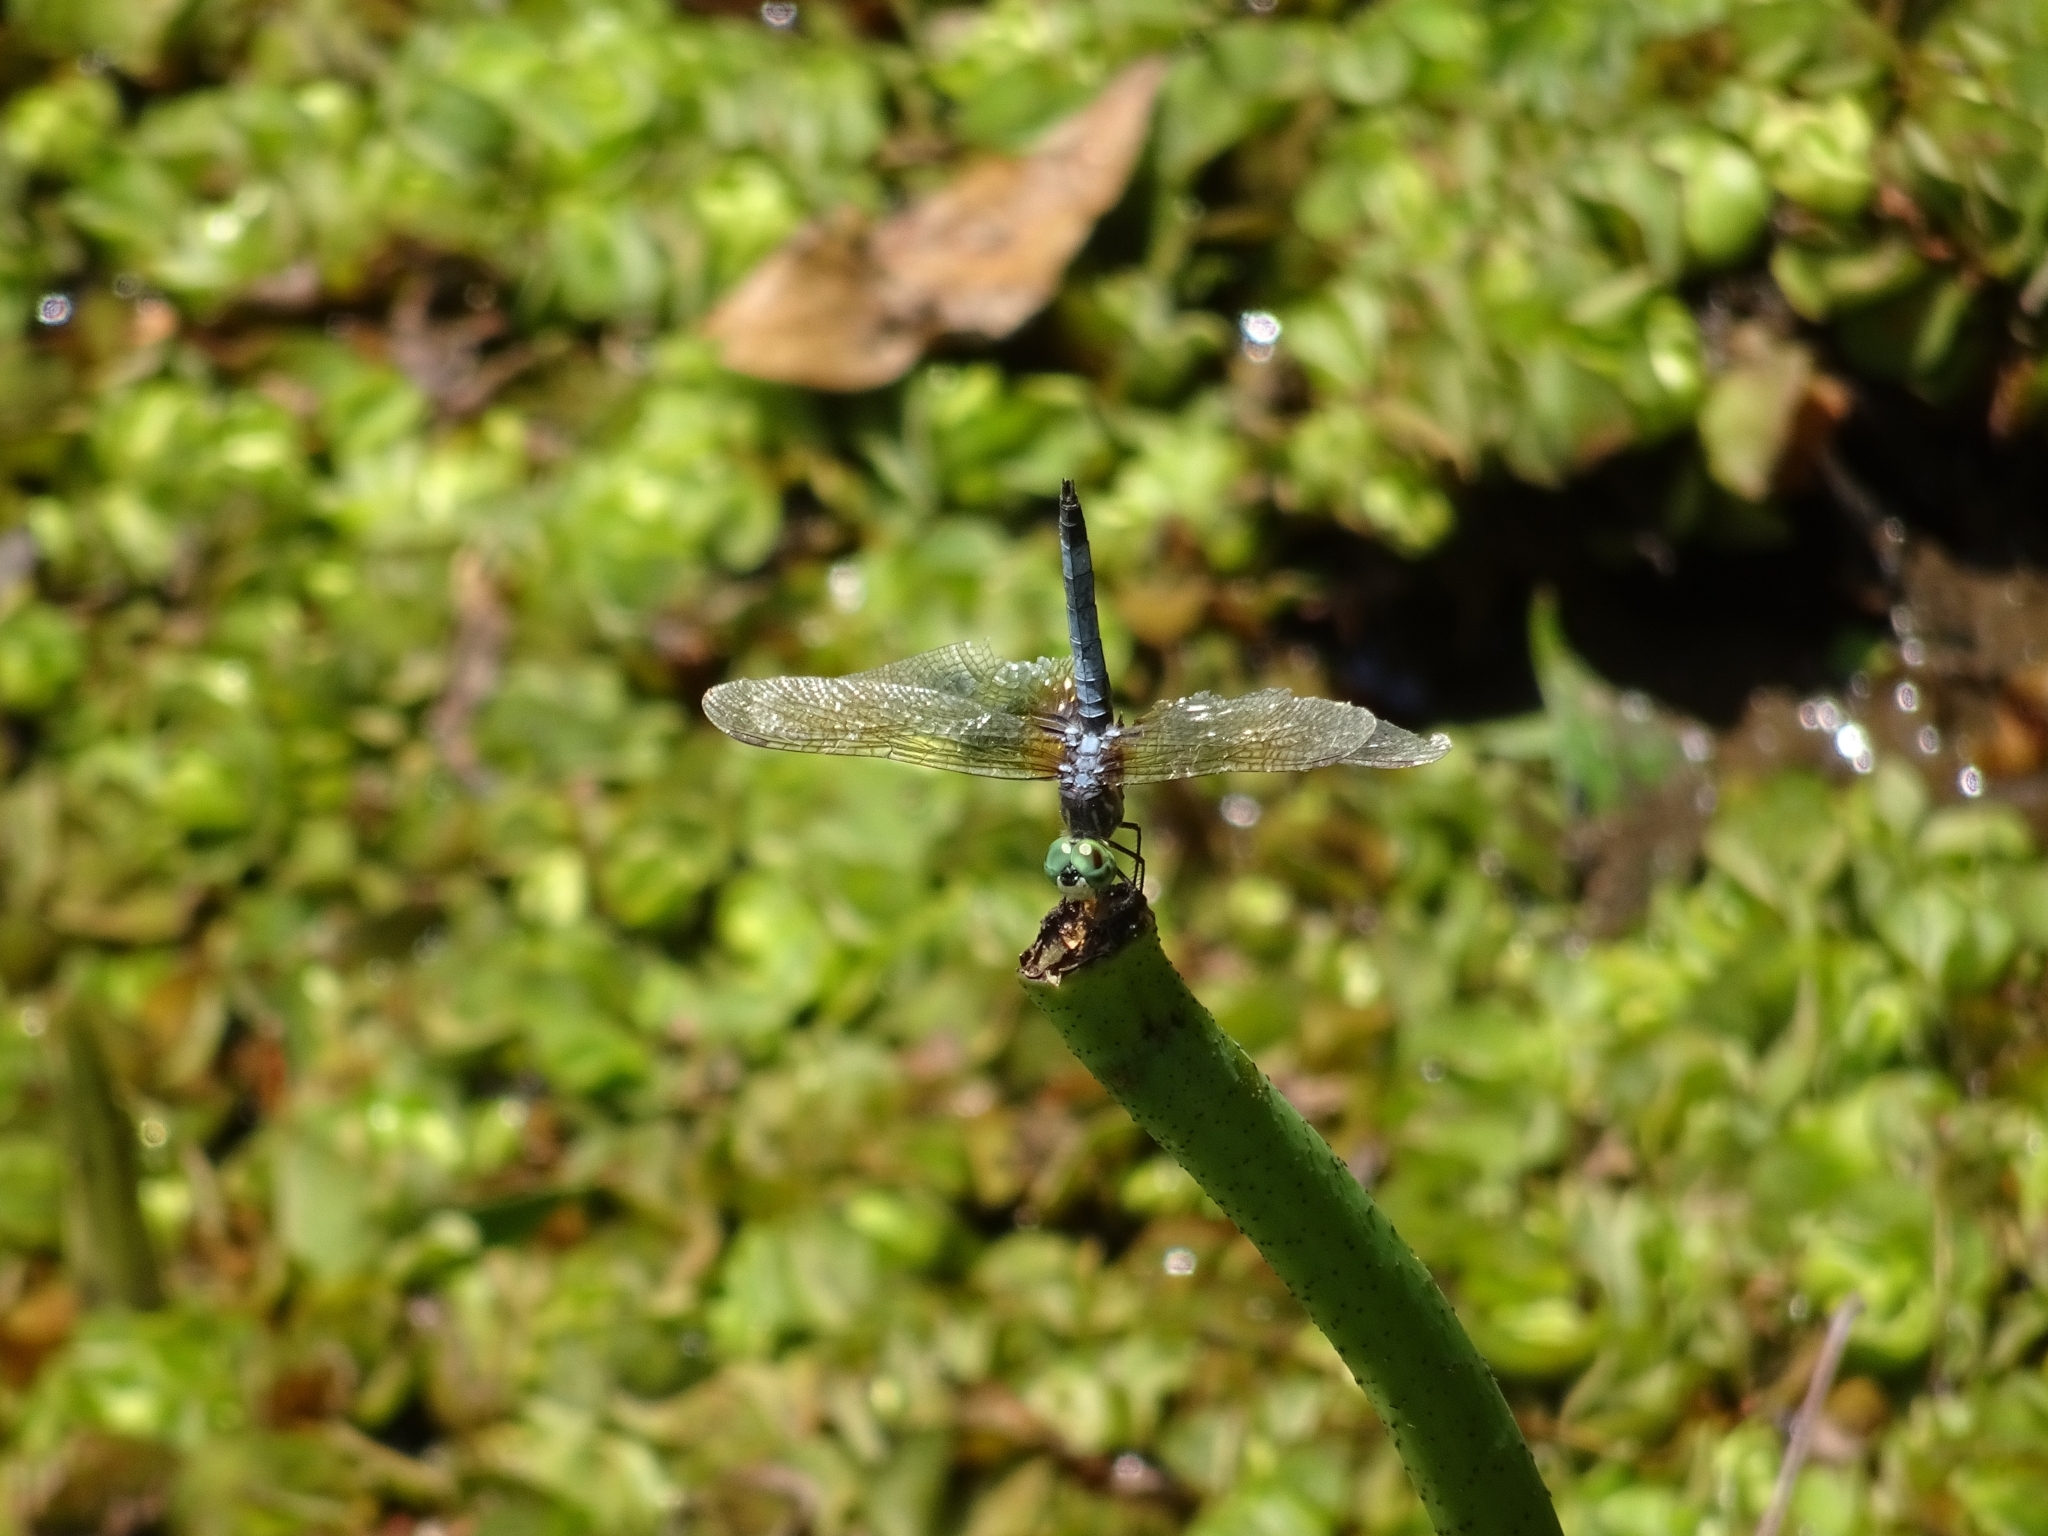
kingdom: Animalia
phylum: Arthropoda
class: Insecta
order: Odonata
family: Libellulidae
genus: Pachydiplax
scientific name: Pachydiplax longipennis
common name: Blue dasher
